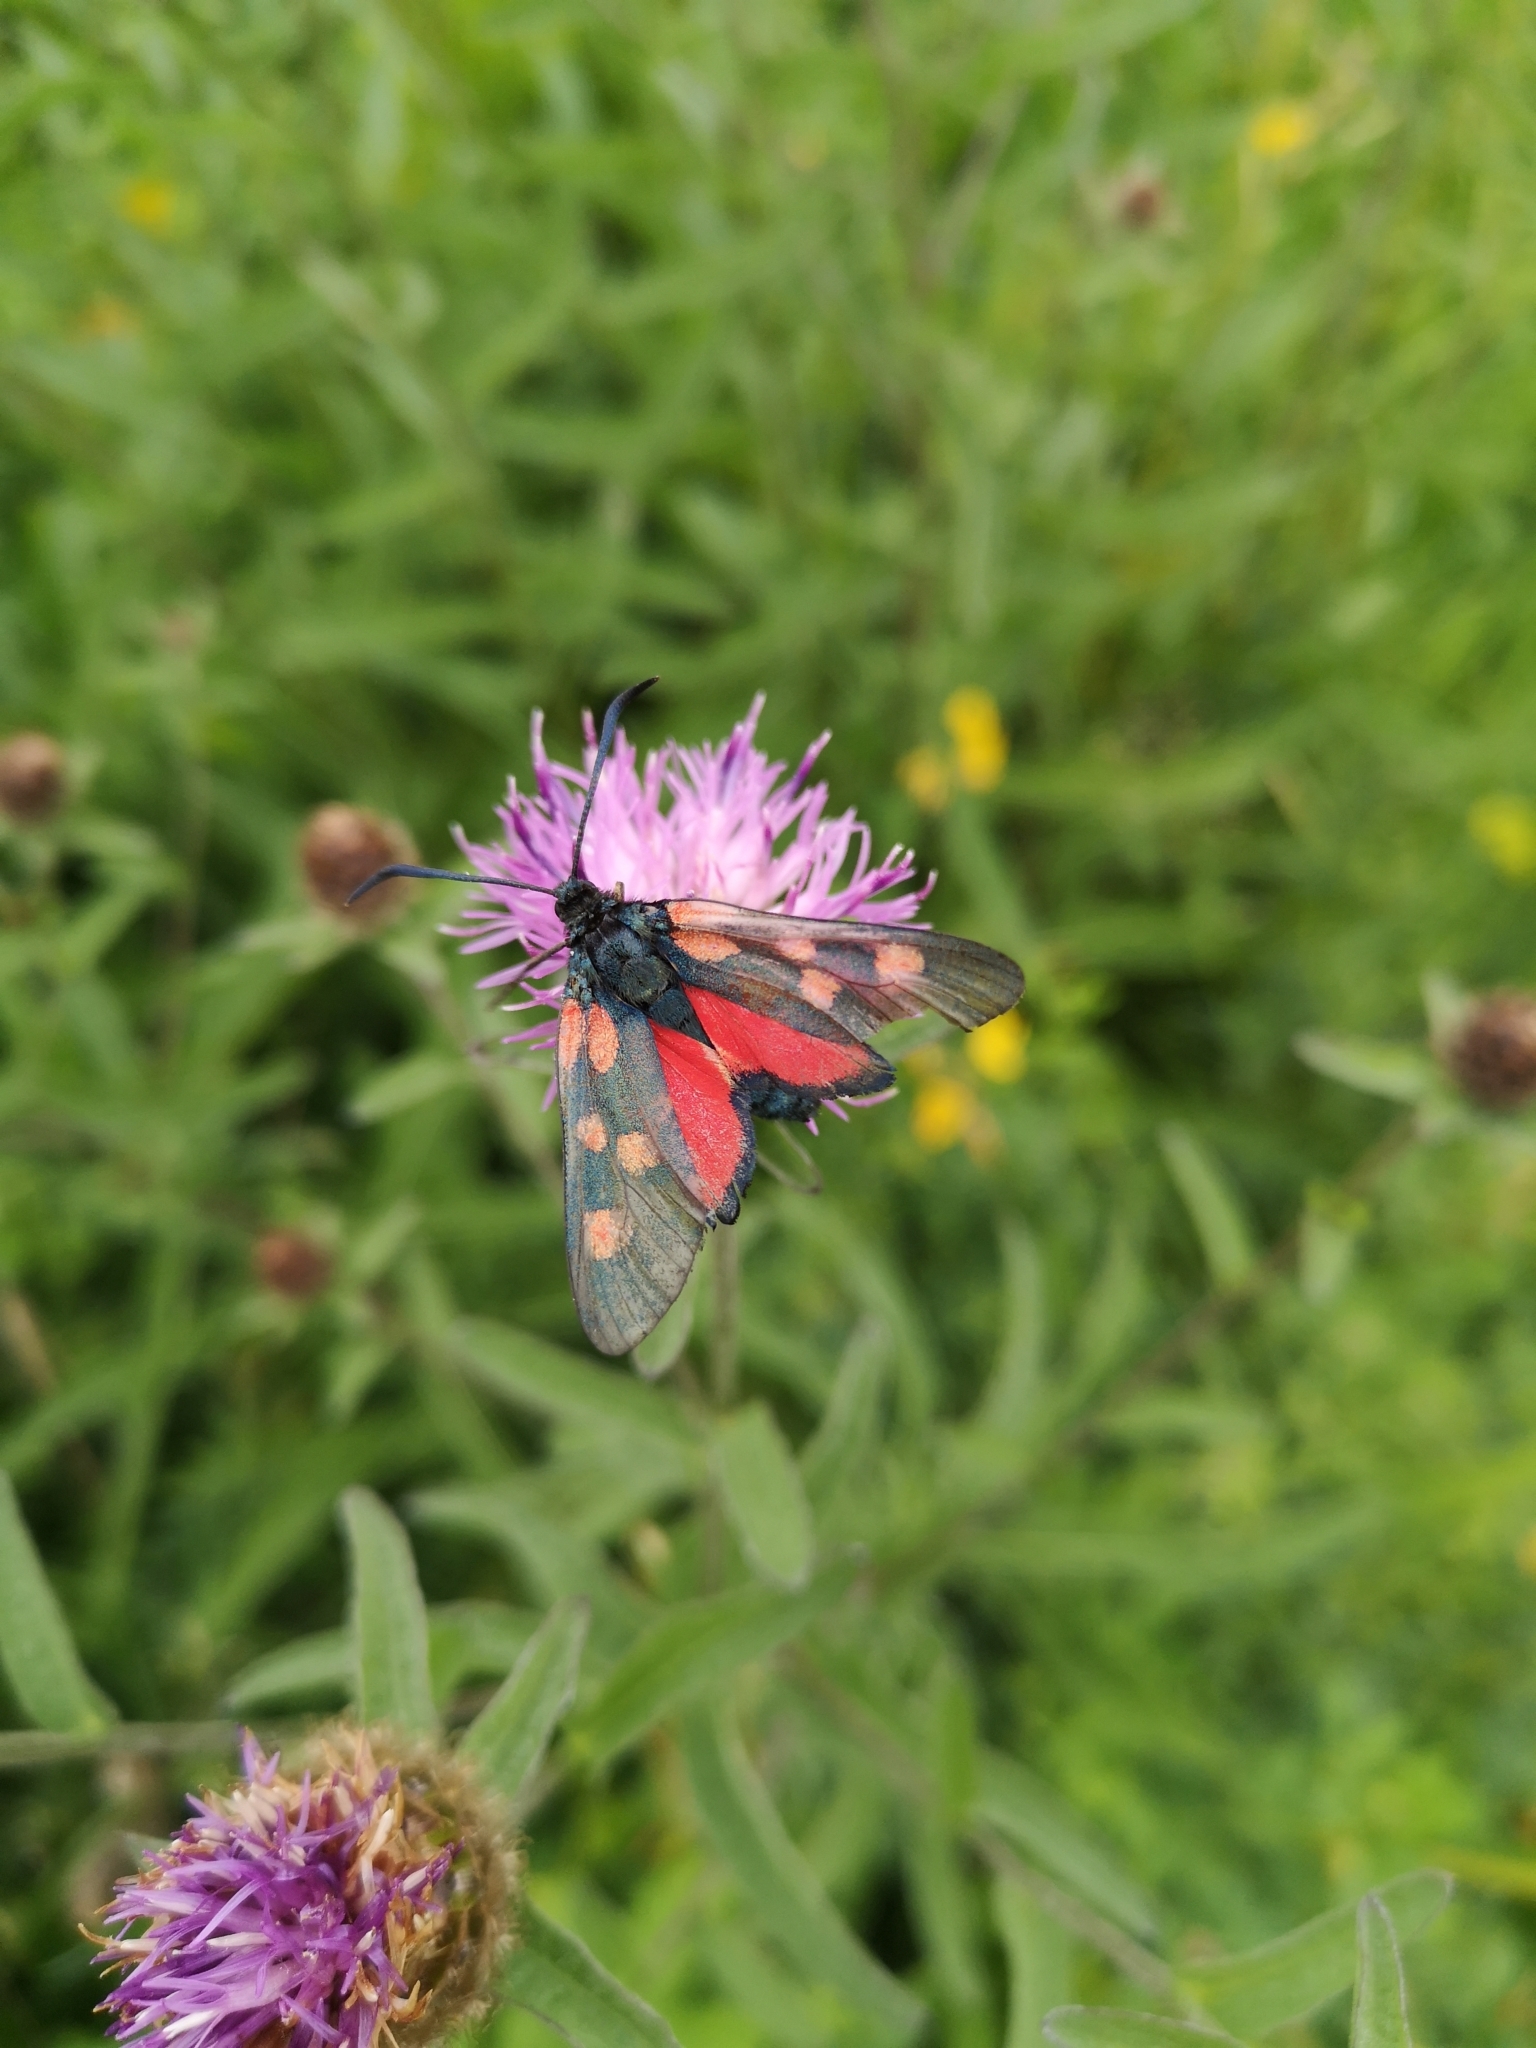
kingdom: Animalia
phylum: Arthropoda
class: Insecta
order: Lepidoptera
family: Zygaenidae
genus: Zygaena
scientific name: Zygaena lonicerae
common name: Narrow-bordered five-spot burnet
